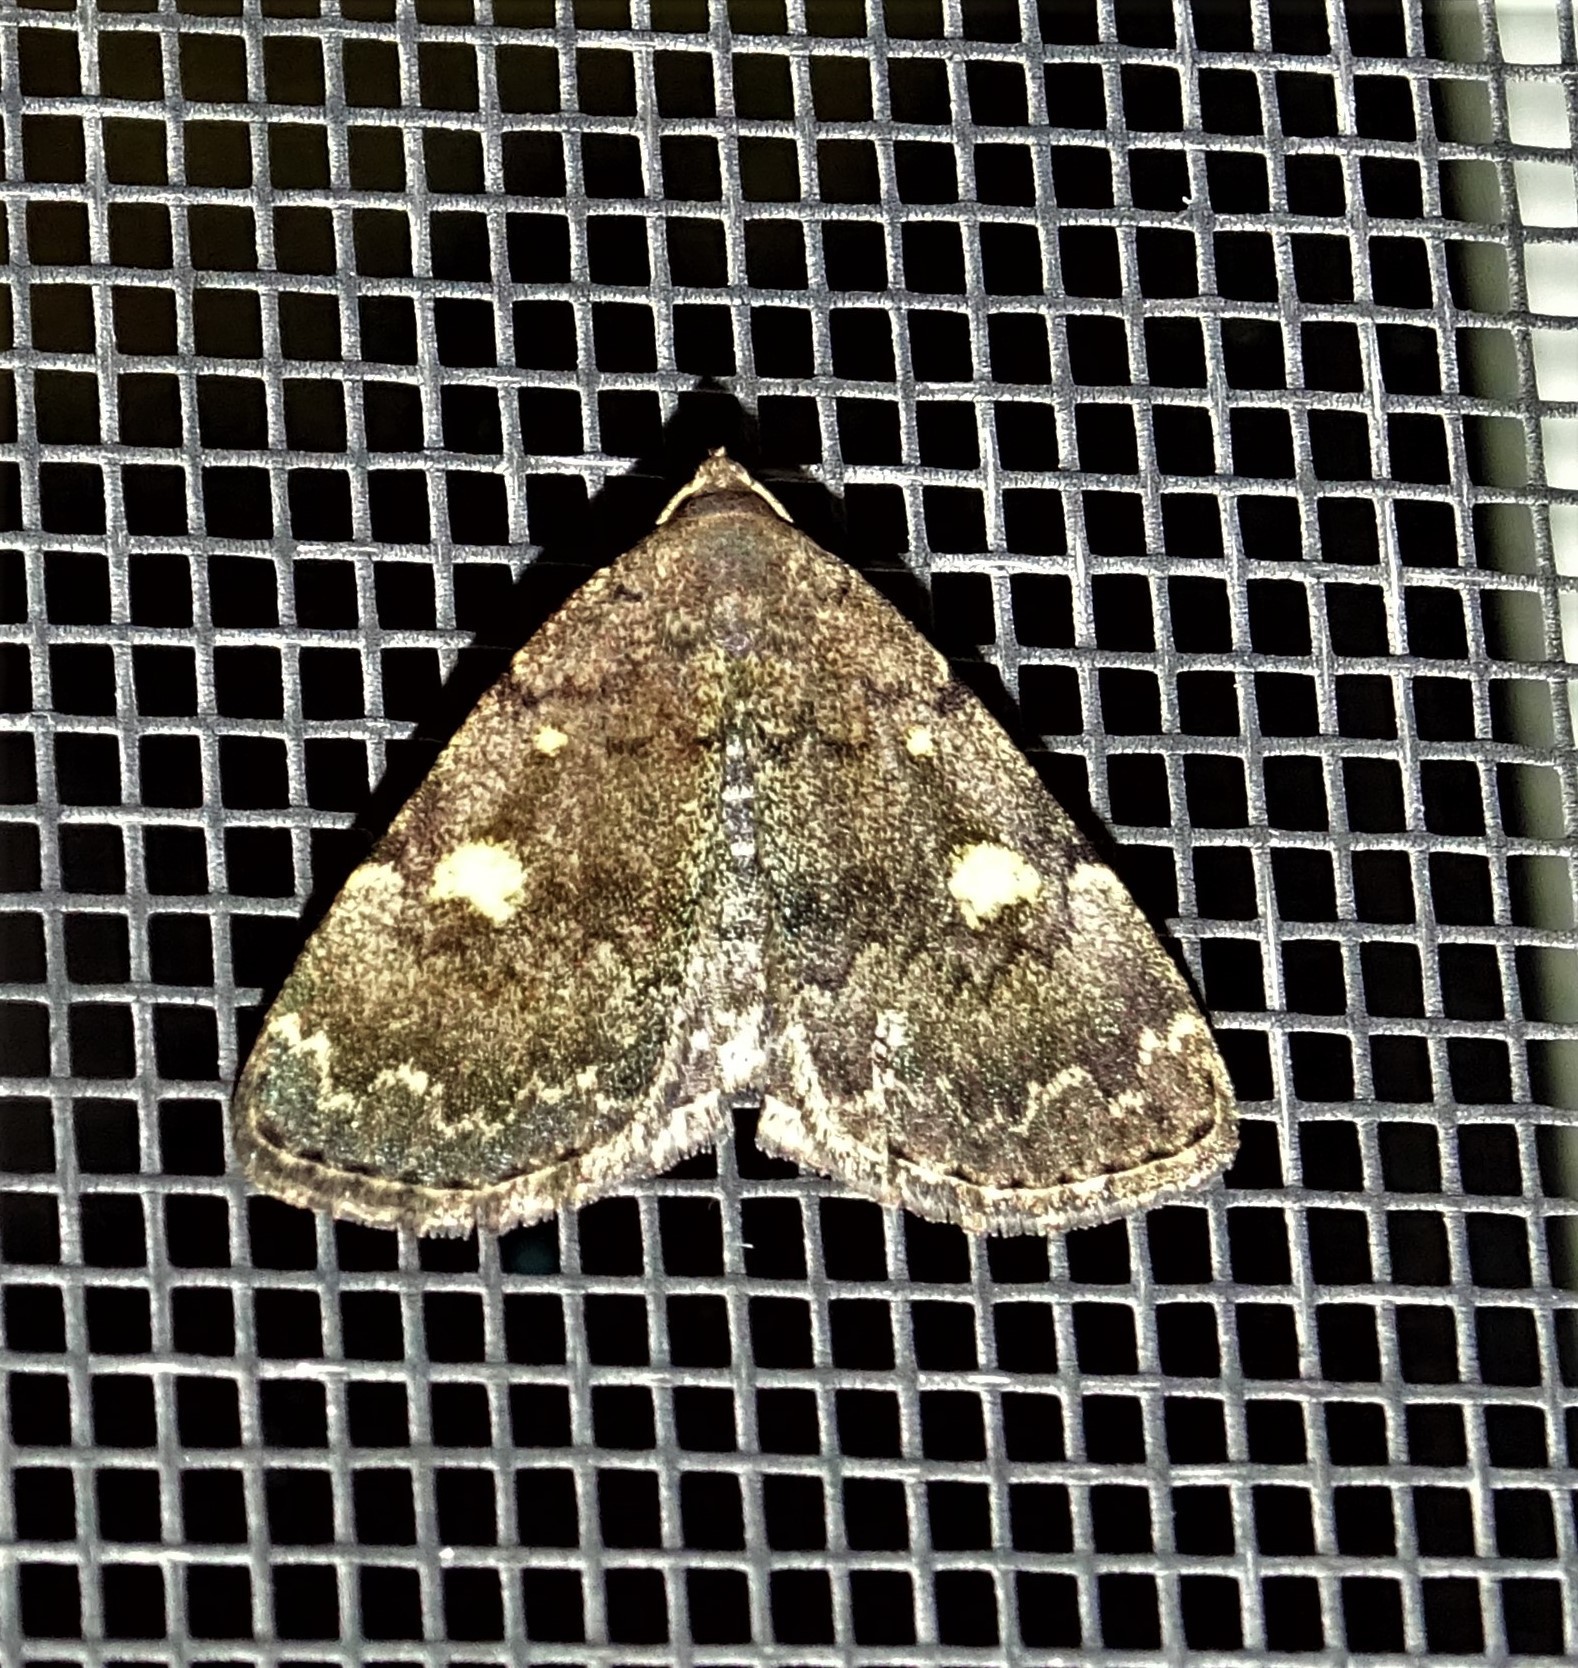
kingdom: Animalia
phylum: Arthropoda
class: Insecta
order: Lepidoptera
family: Erebidae
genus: Idia
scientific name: Idia aemula
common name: Common idia moth
